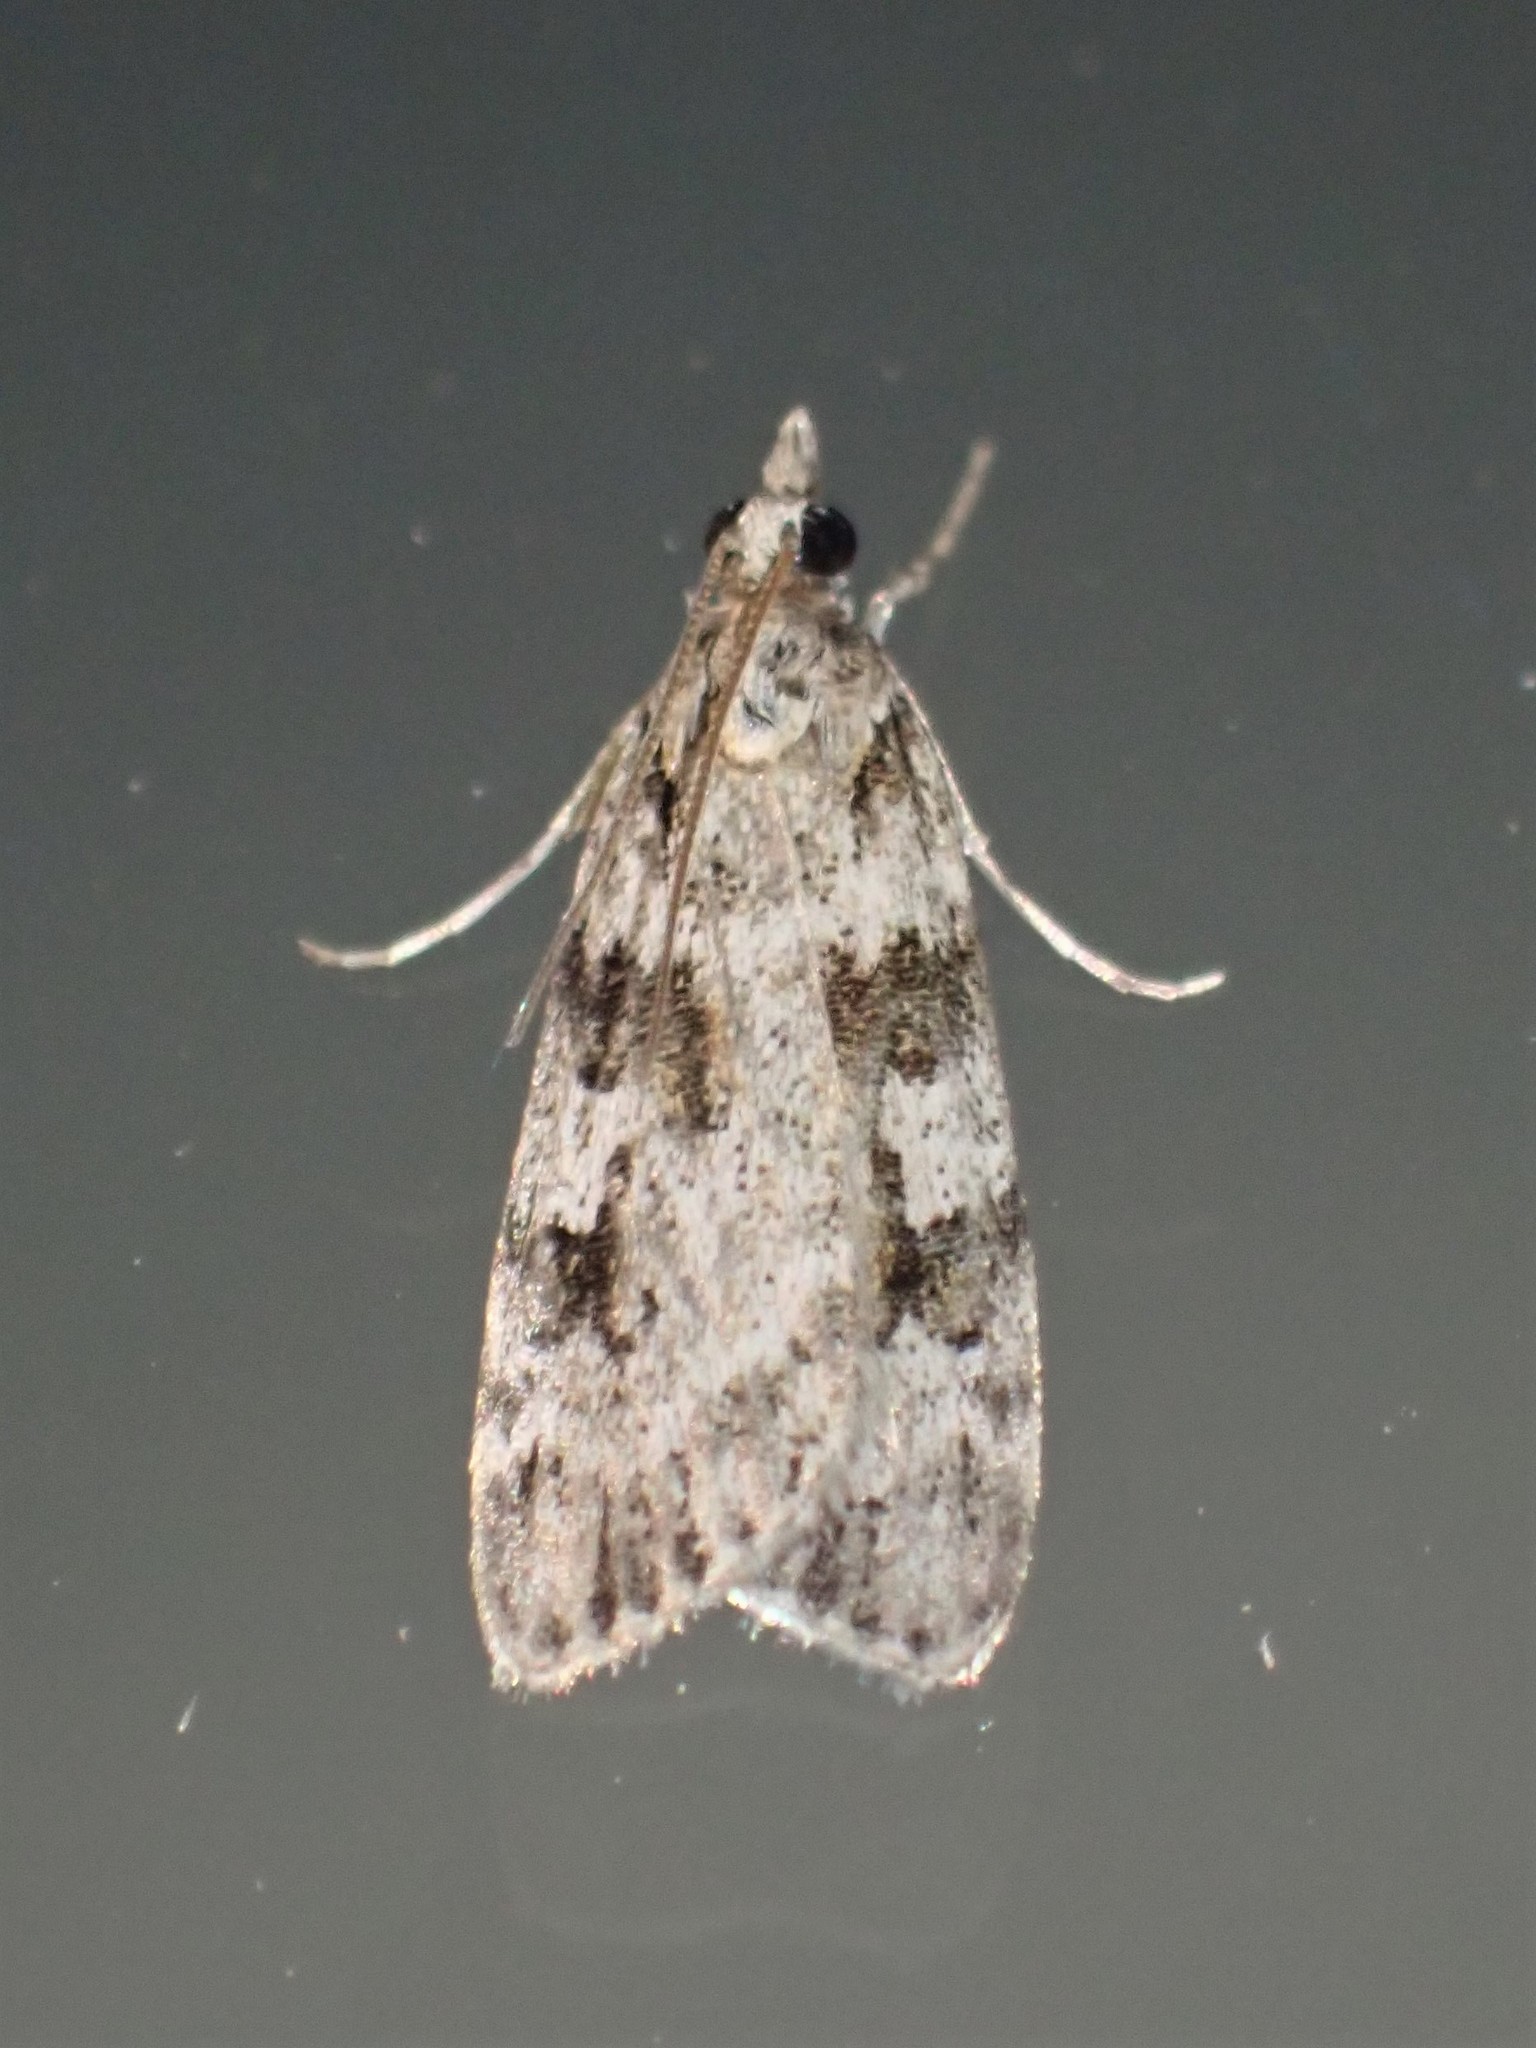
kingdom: Animalia
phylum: Arthropoda
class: Insecta
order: Lepidoptera
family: Crambidae
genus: Scoparia
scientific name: Scoparia biplagialis
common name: Double-striped scoparia moth
